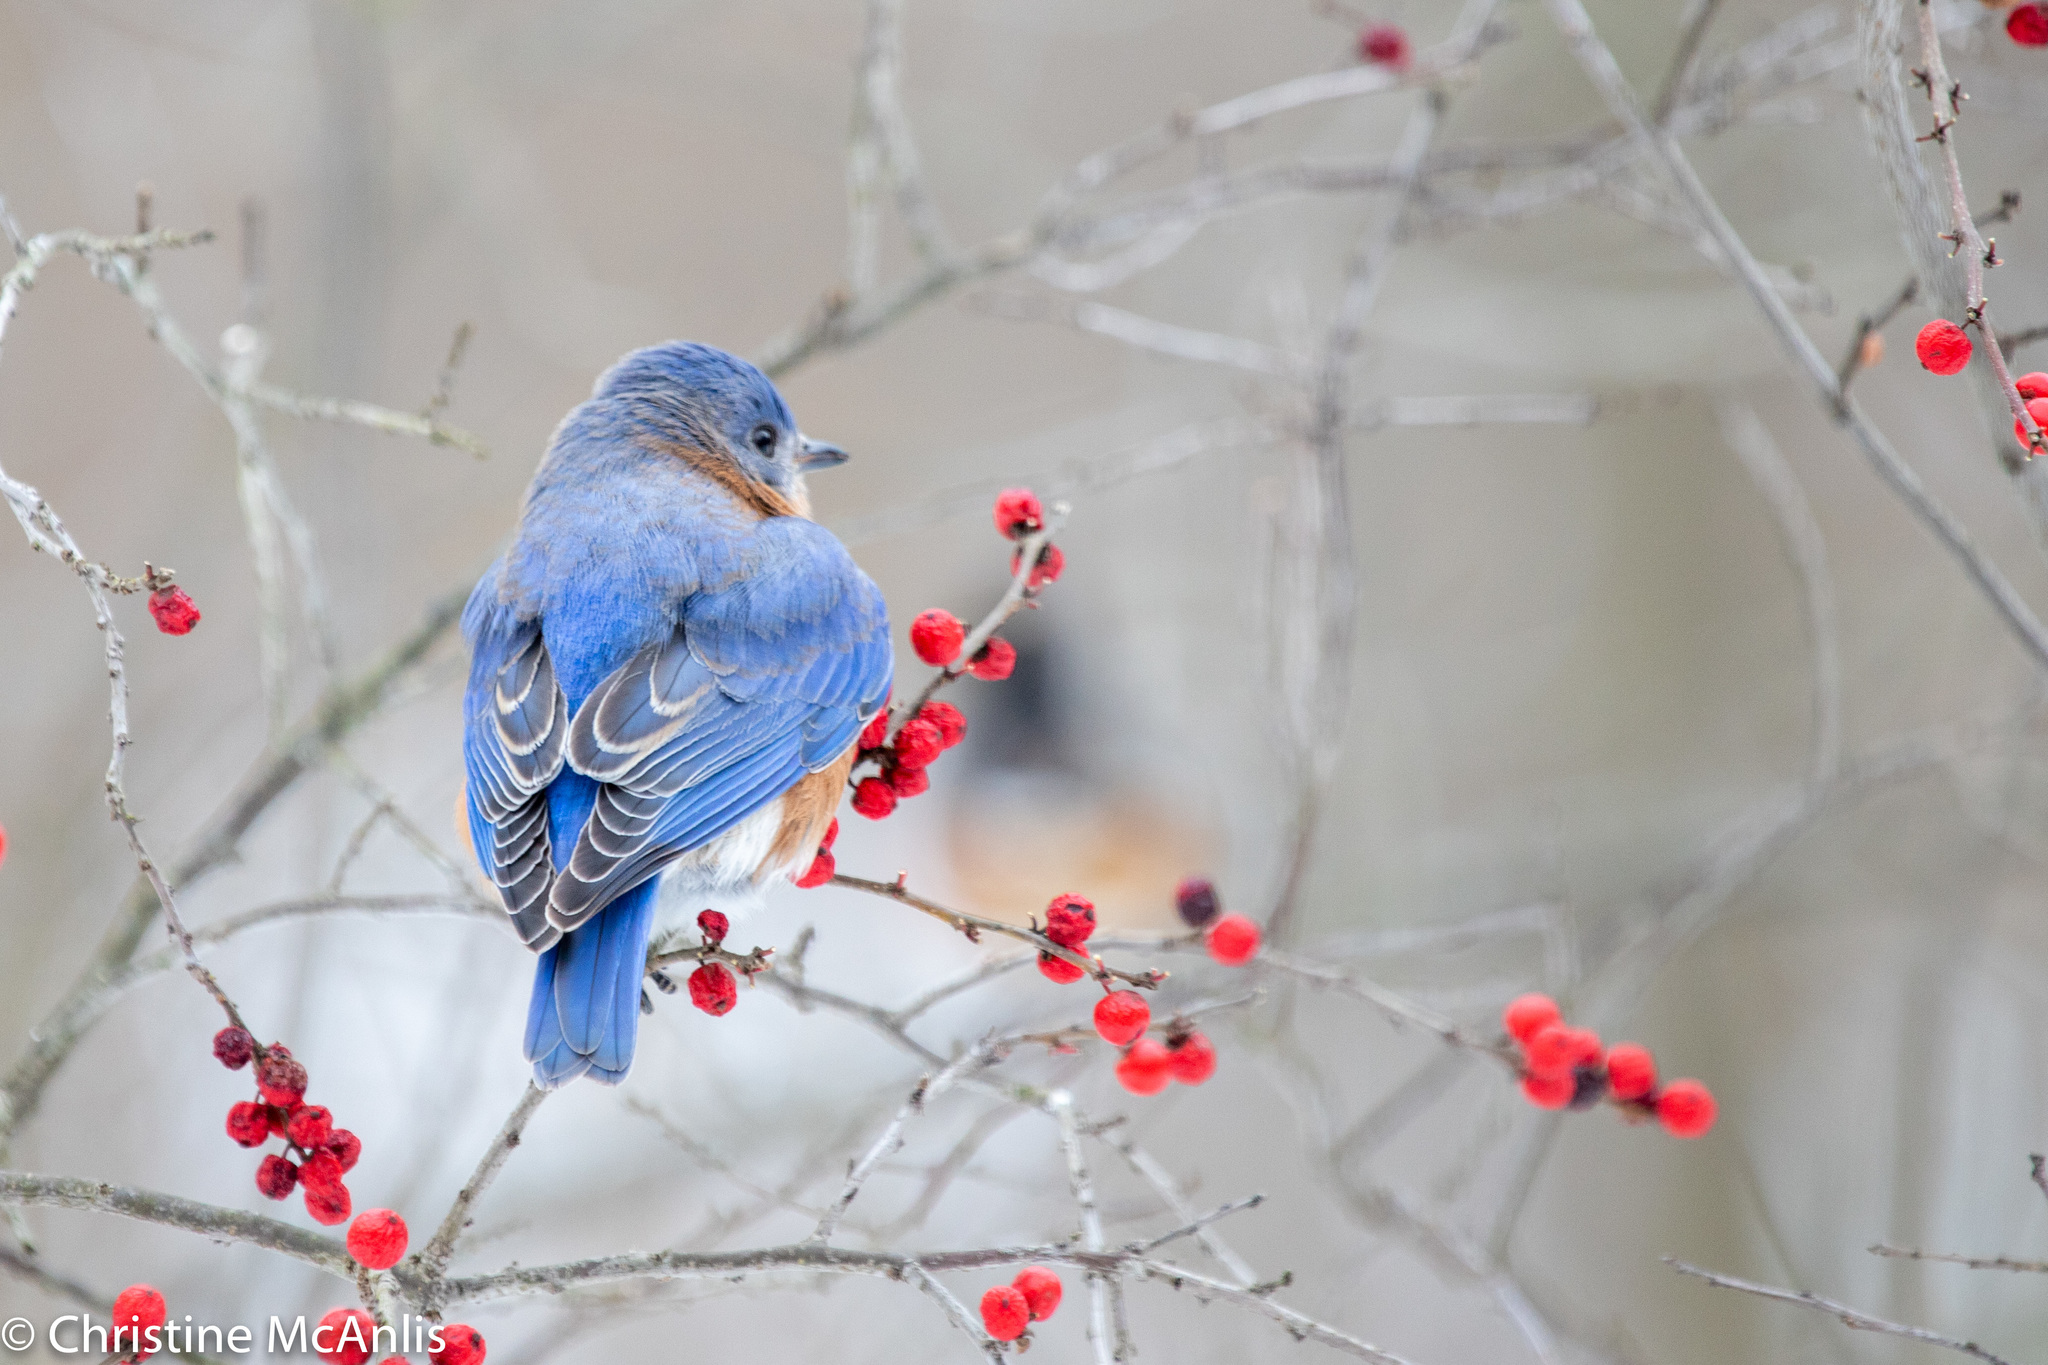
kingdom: Animalia
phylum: Chordata
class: Aves
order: Passeriformes
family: Turdidae
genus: Sialia
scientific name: Sialia sialis
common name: Eastern bluebird
